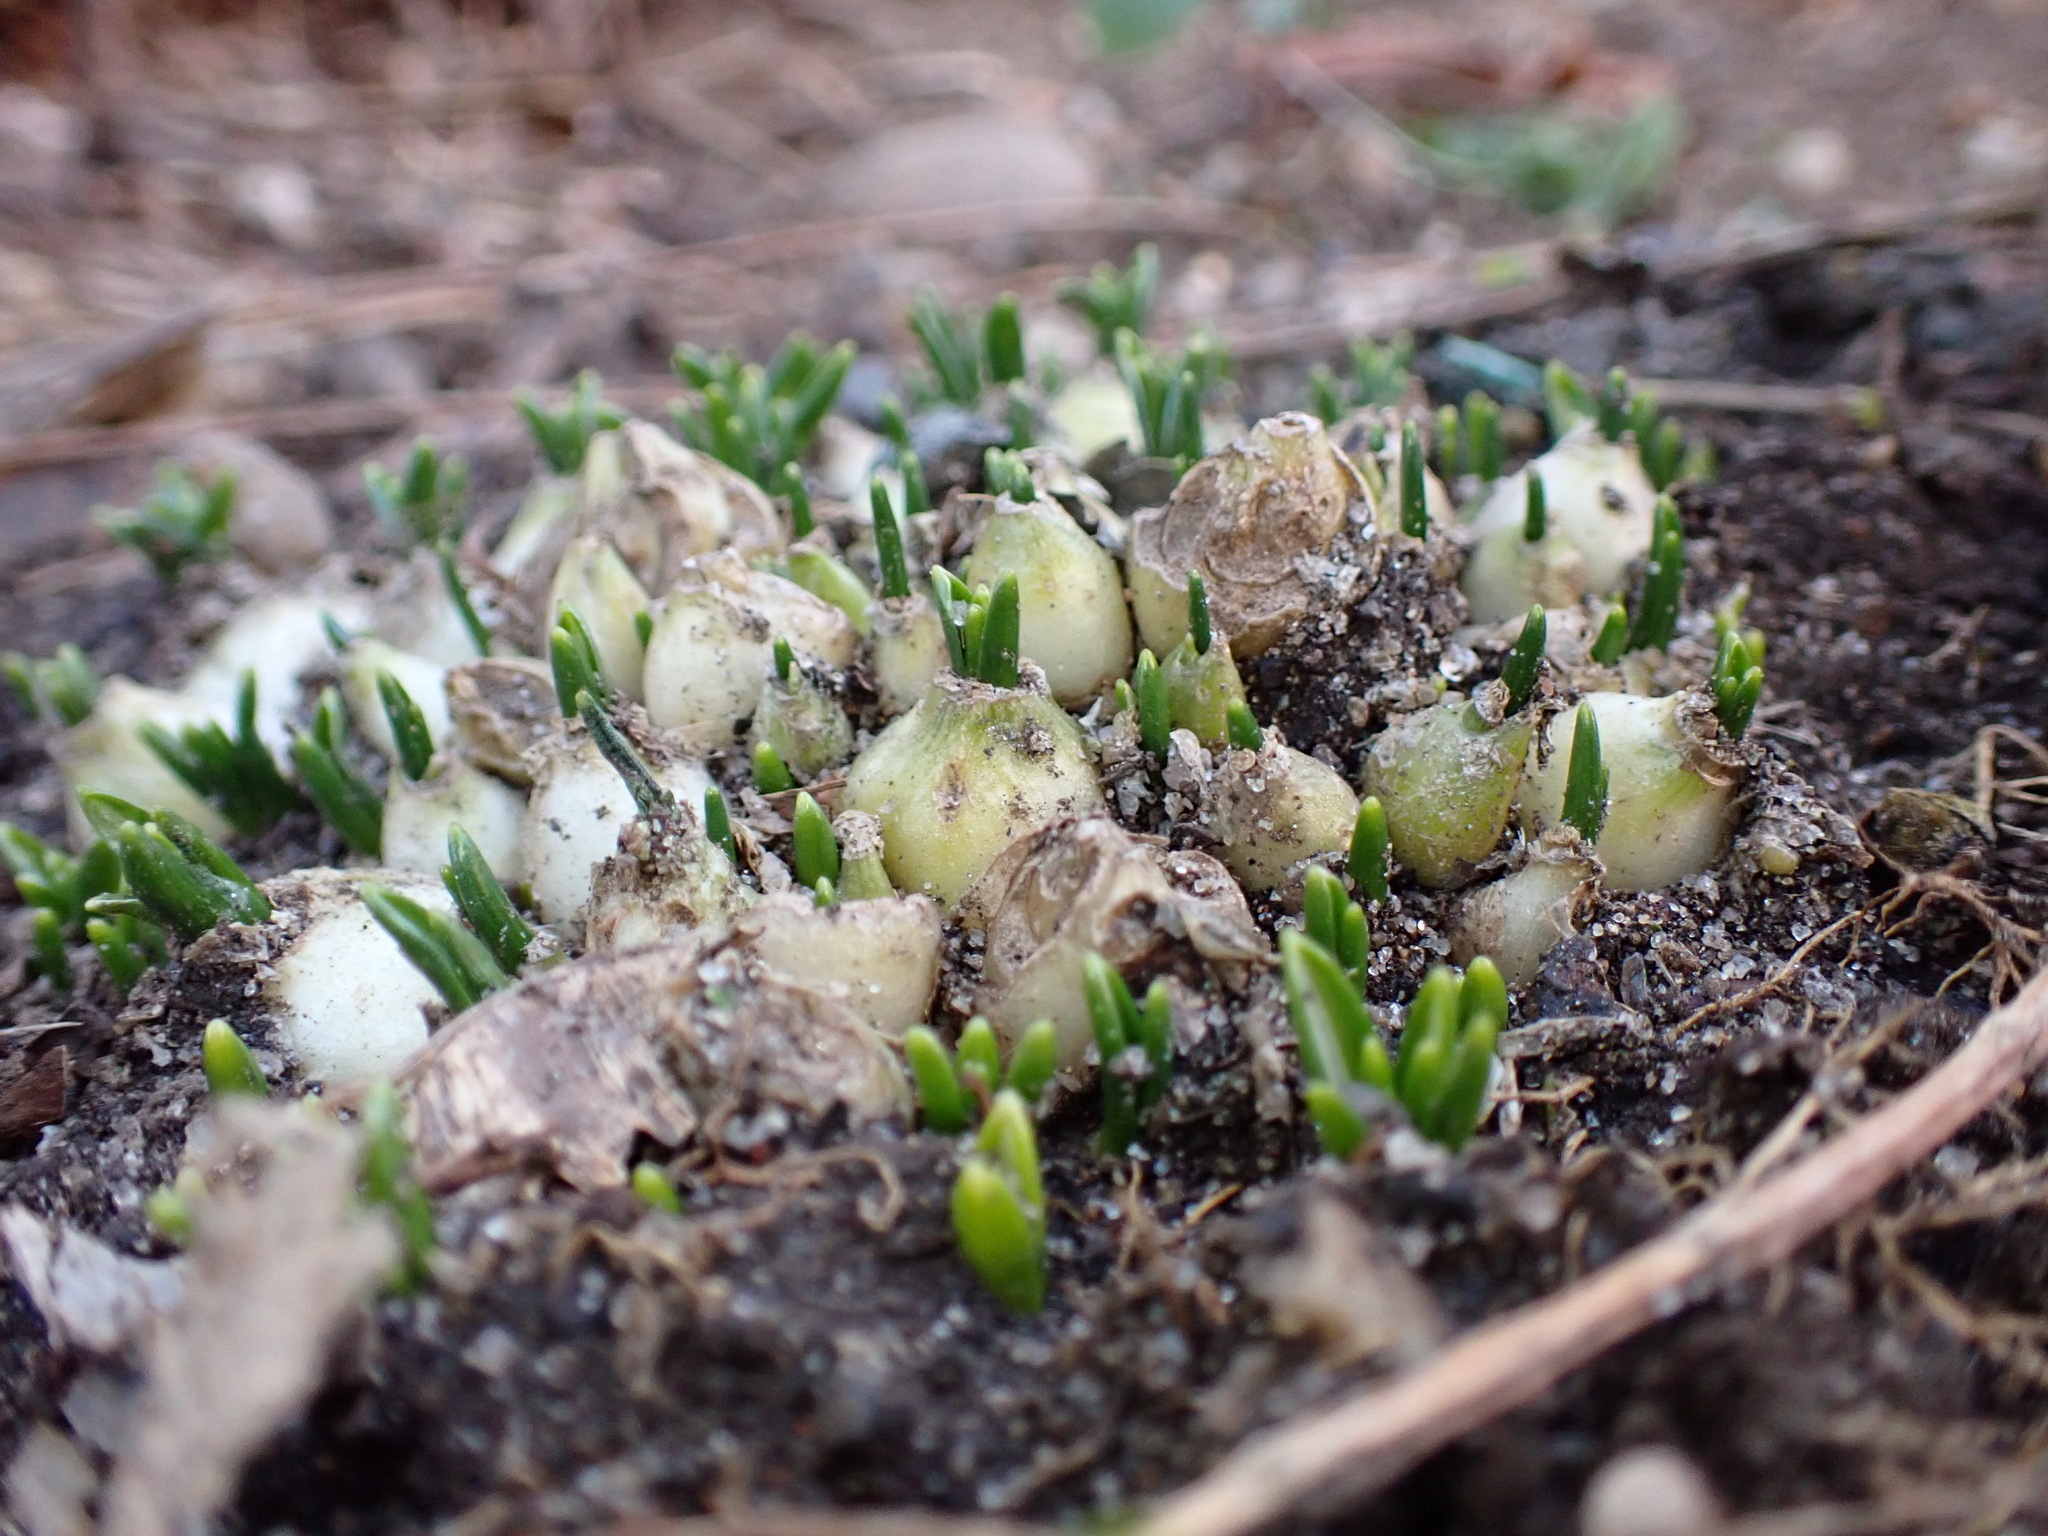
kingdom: Plantae
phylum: Tracheophyta
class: Liliopsida
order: Asparagales
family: Asparagaceae
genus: Ornithogalum
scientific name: Ornithogalum umbellatum
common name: Garden star-of-bethlehem
